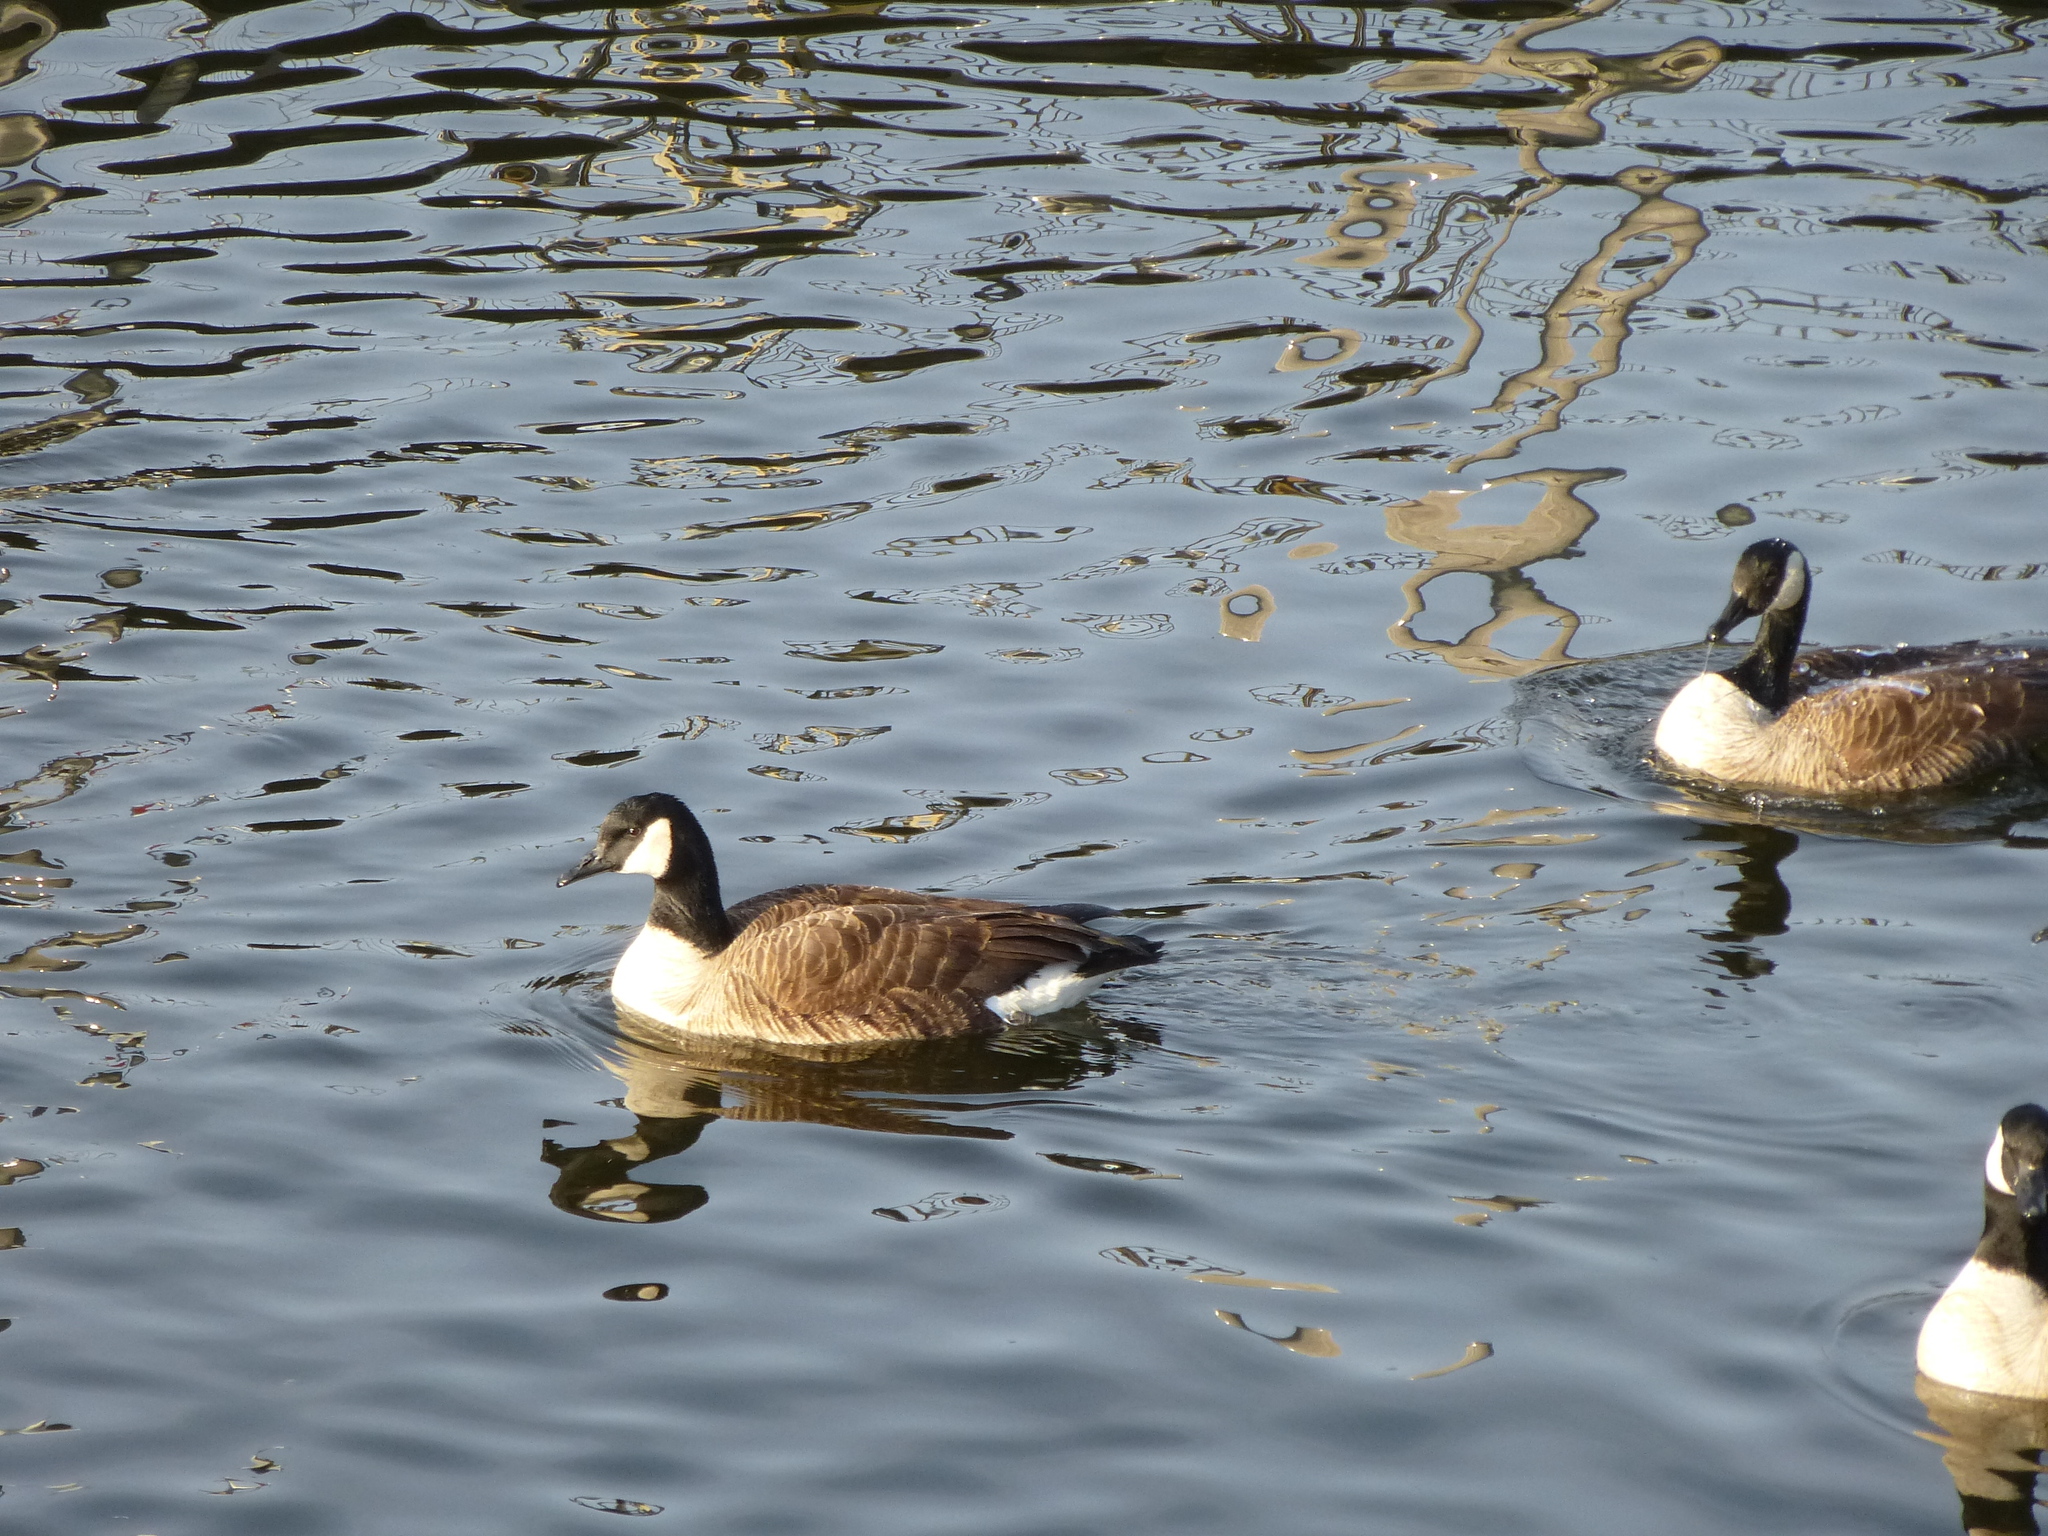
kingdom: Animalia
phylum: Chordata
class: Aves
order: Anseriformes
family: Anatidae
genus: Branta
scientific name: Branta canadensis
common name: Canada goose
